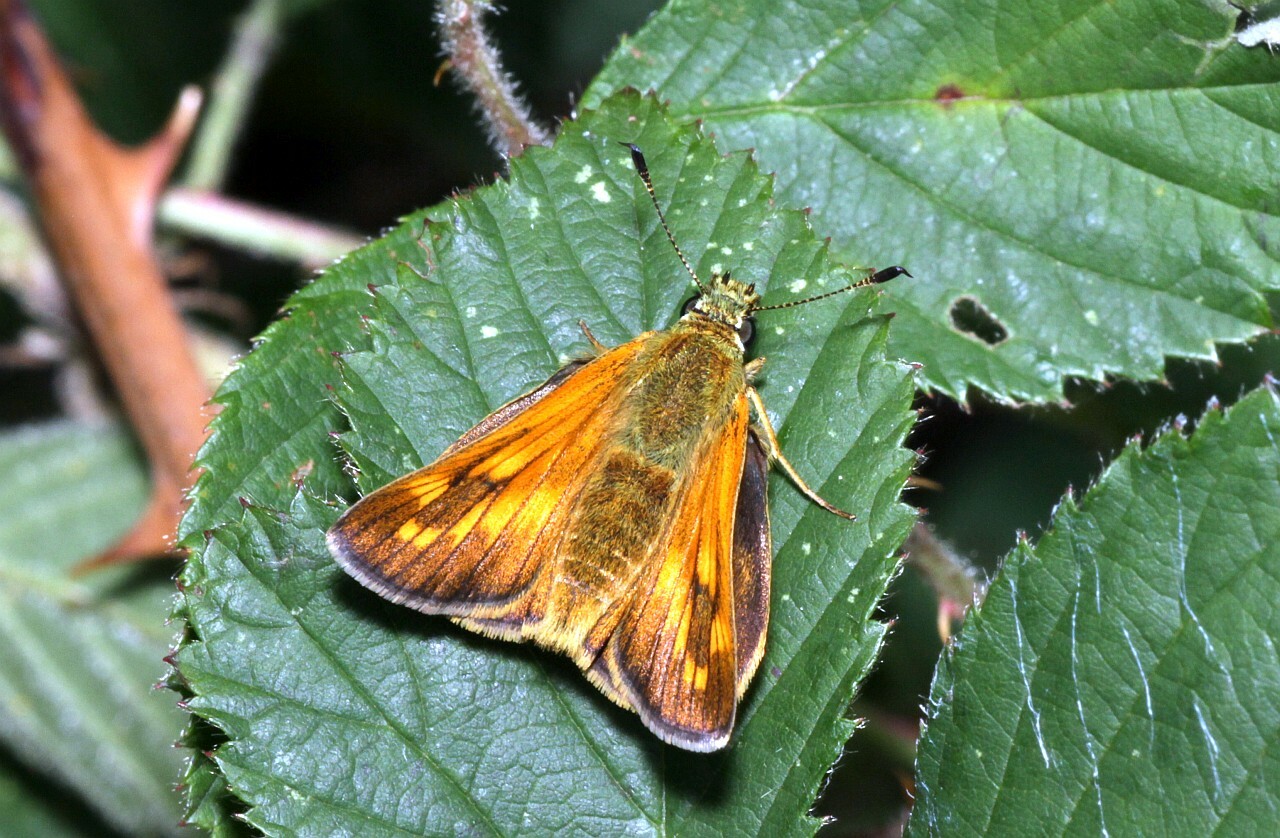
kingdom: Animalia
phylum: Arthropoda
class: Insecta
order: Lepidoptera
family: Hesperiidae
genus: Ochlodes
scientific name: Ochlodes venata
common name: Large skipper
